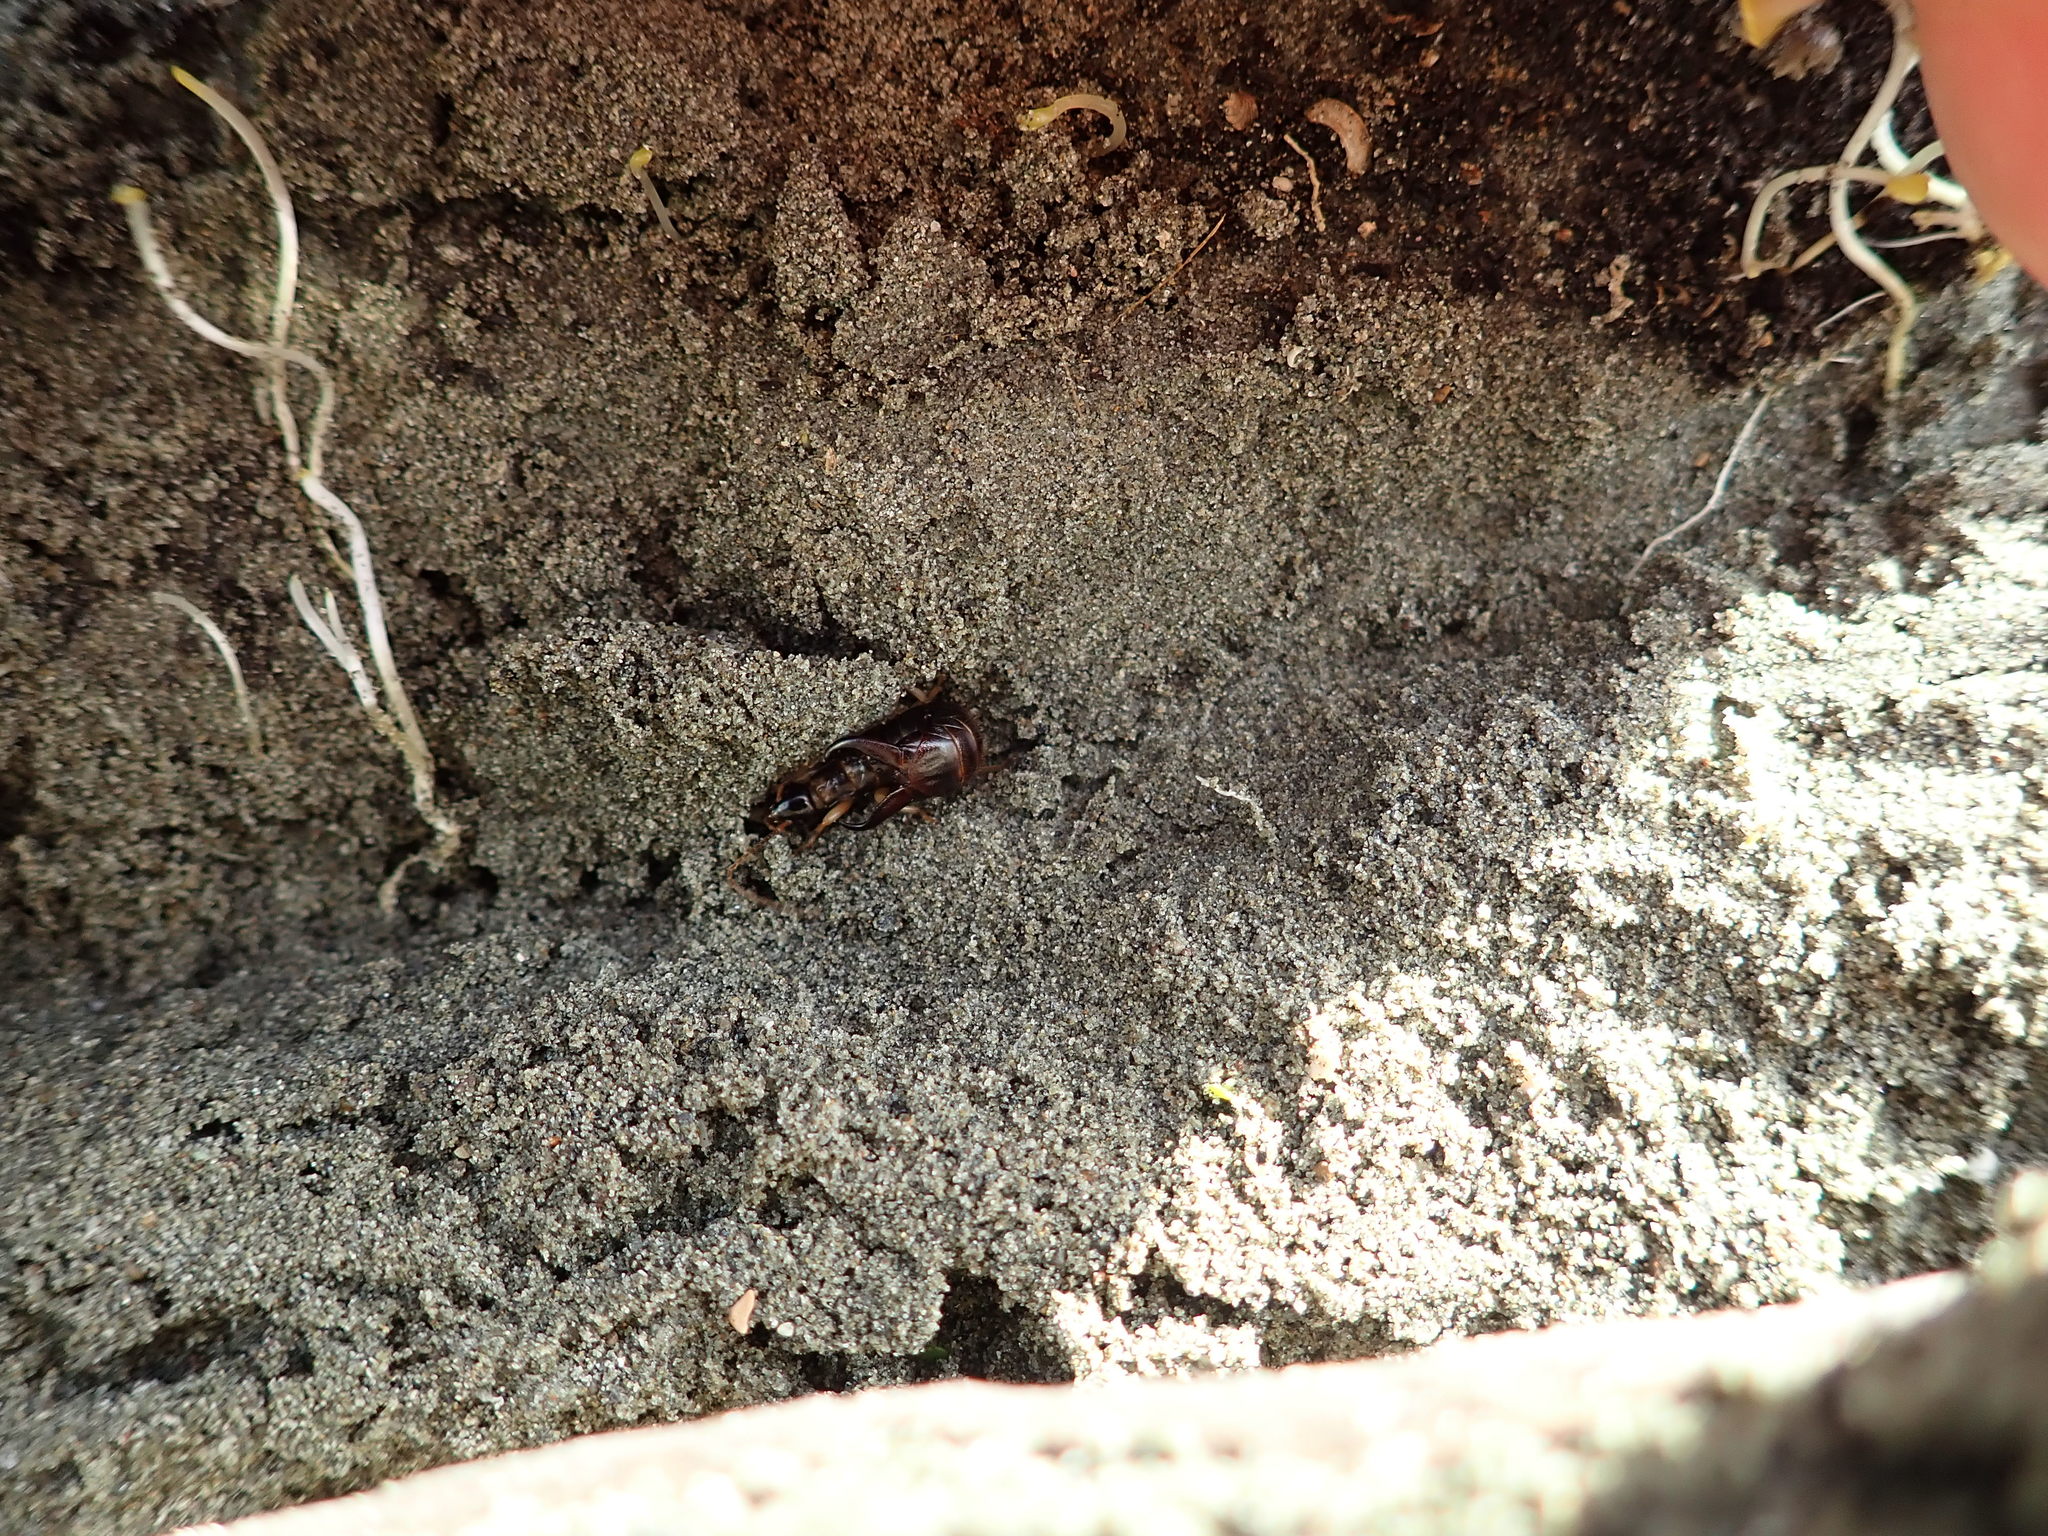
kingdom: Animalia
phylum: Arthropoda
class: Insecta
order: Dermaptera
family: Anisolabididae
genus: Anisolabis
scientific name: Anisolabis littorea
